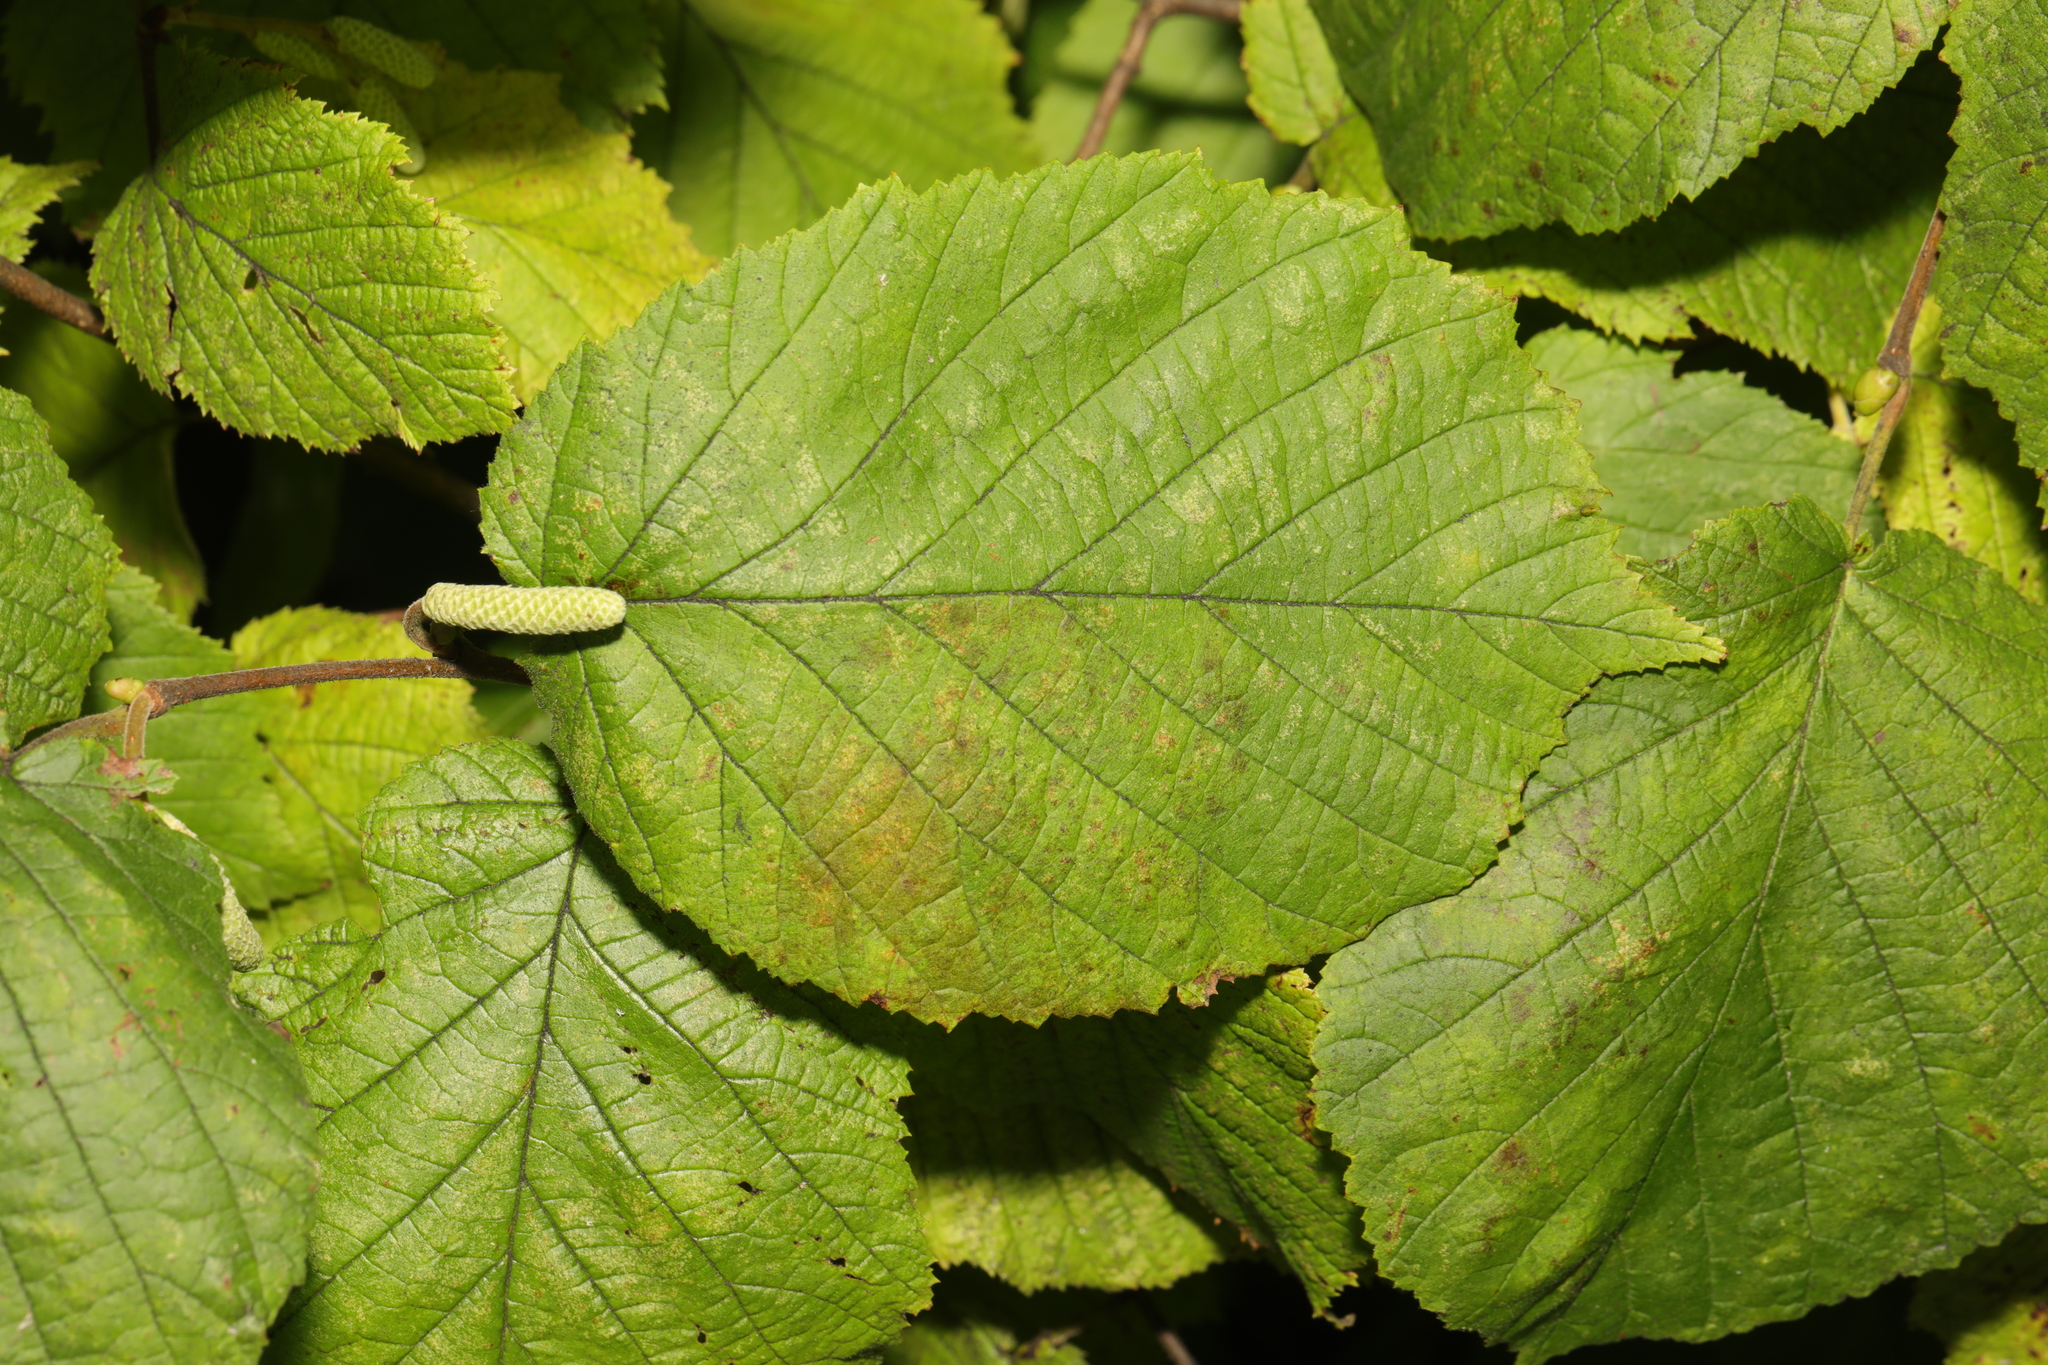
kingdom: Plantae
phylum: Tracheophyta
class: Magnoliopsida
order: Fagales
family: Betulaceae
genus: Corylus
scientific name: Corylus avellana
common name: European hazel
